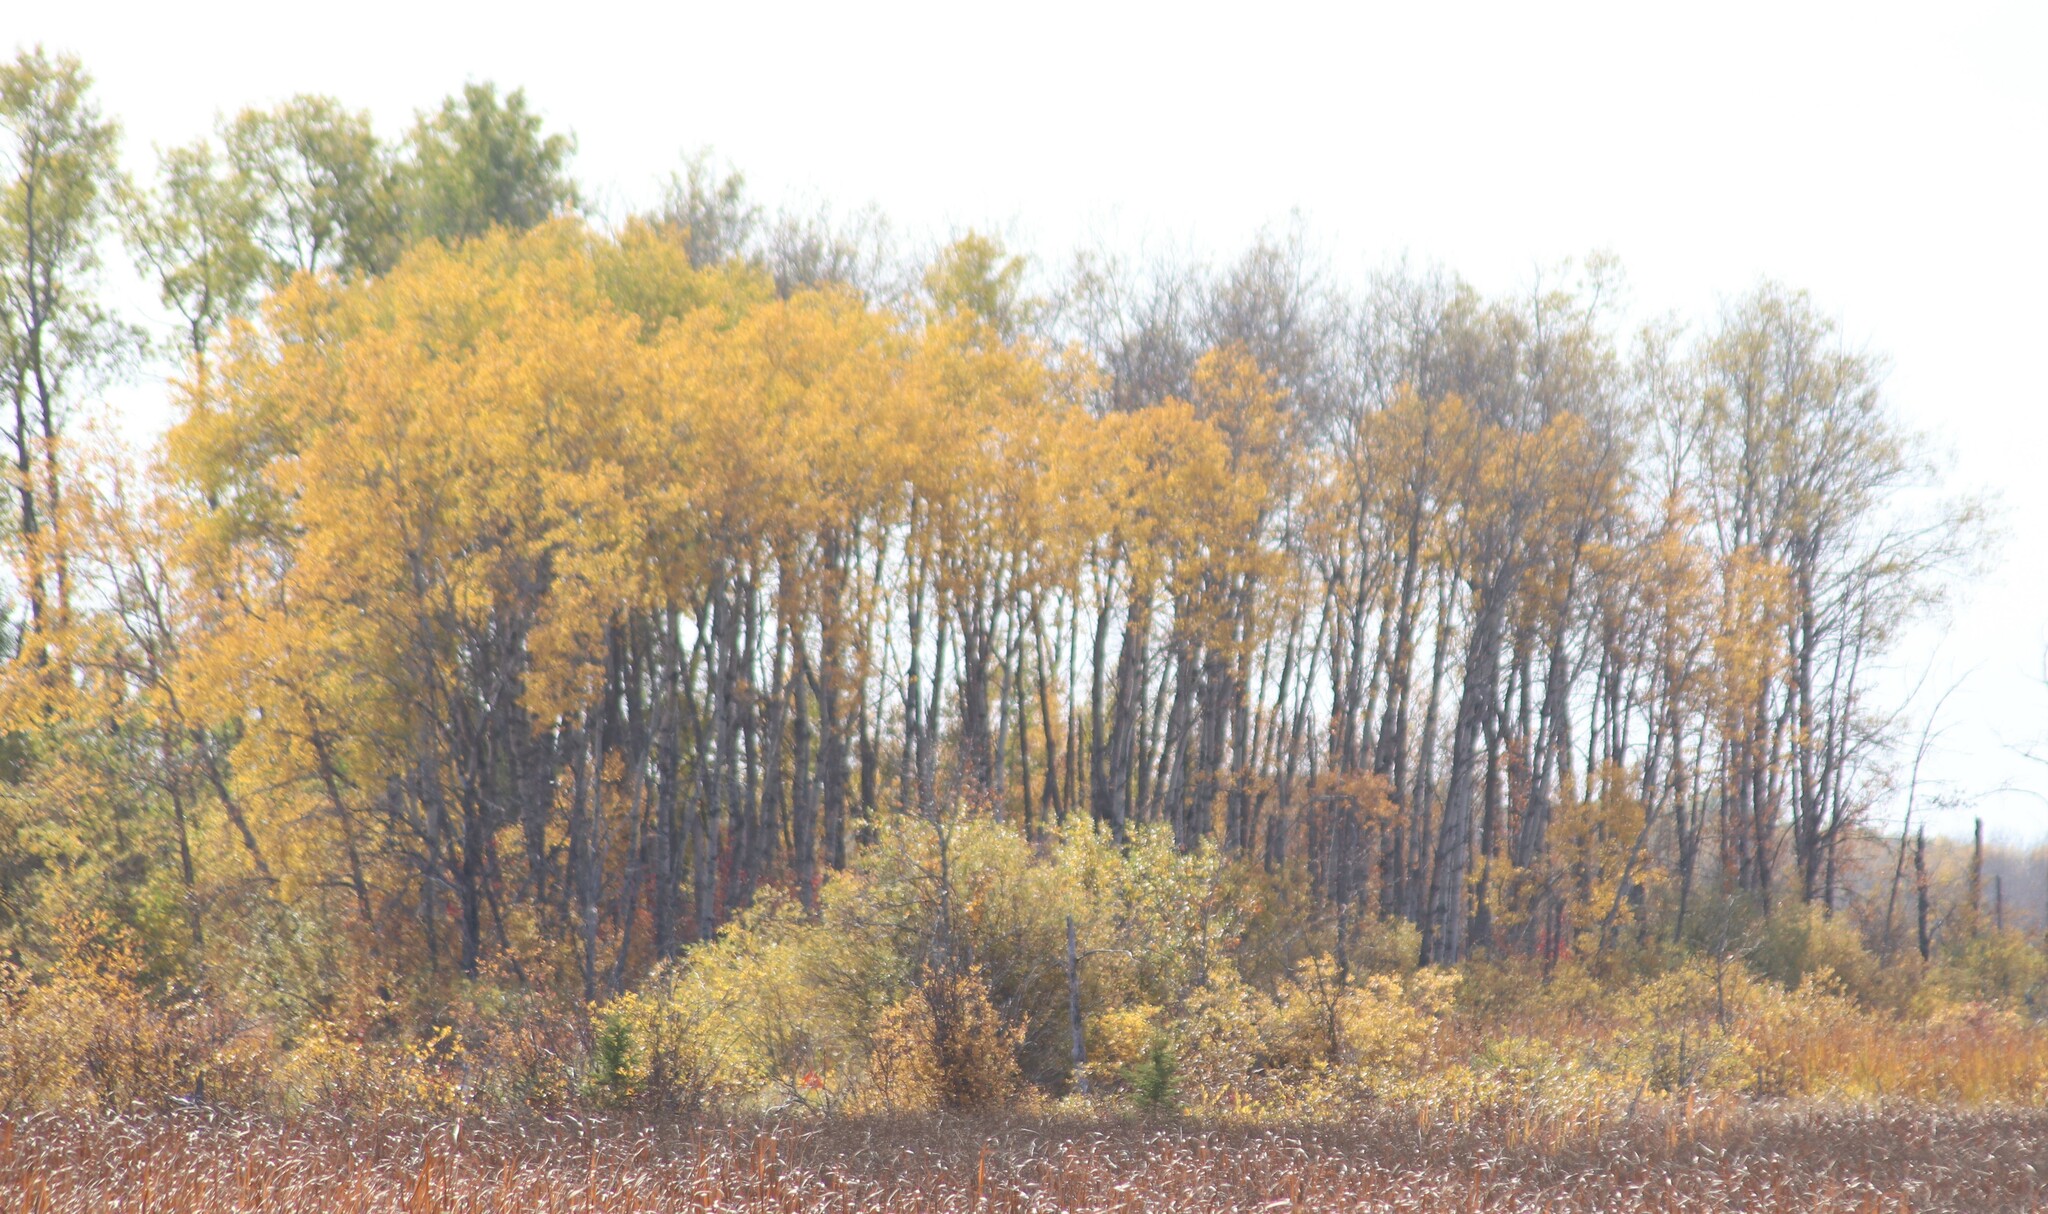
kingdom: Plantae
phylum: Tracheophyta
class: Magnoliopsida
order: Malpighiales
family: Salicaceae
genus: Populus
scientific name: Populus tremuloides
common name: Quaking aspen
